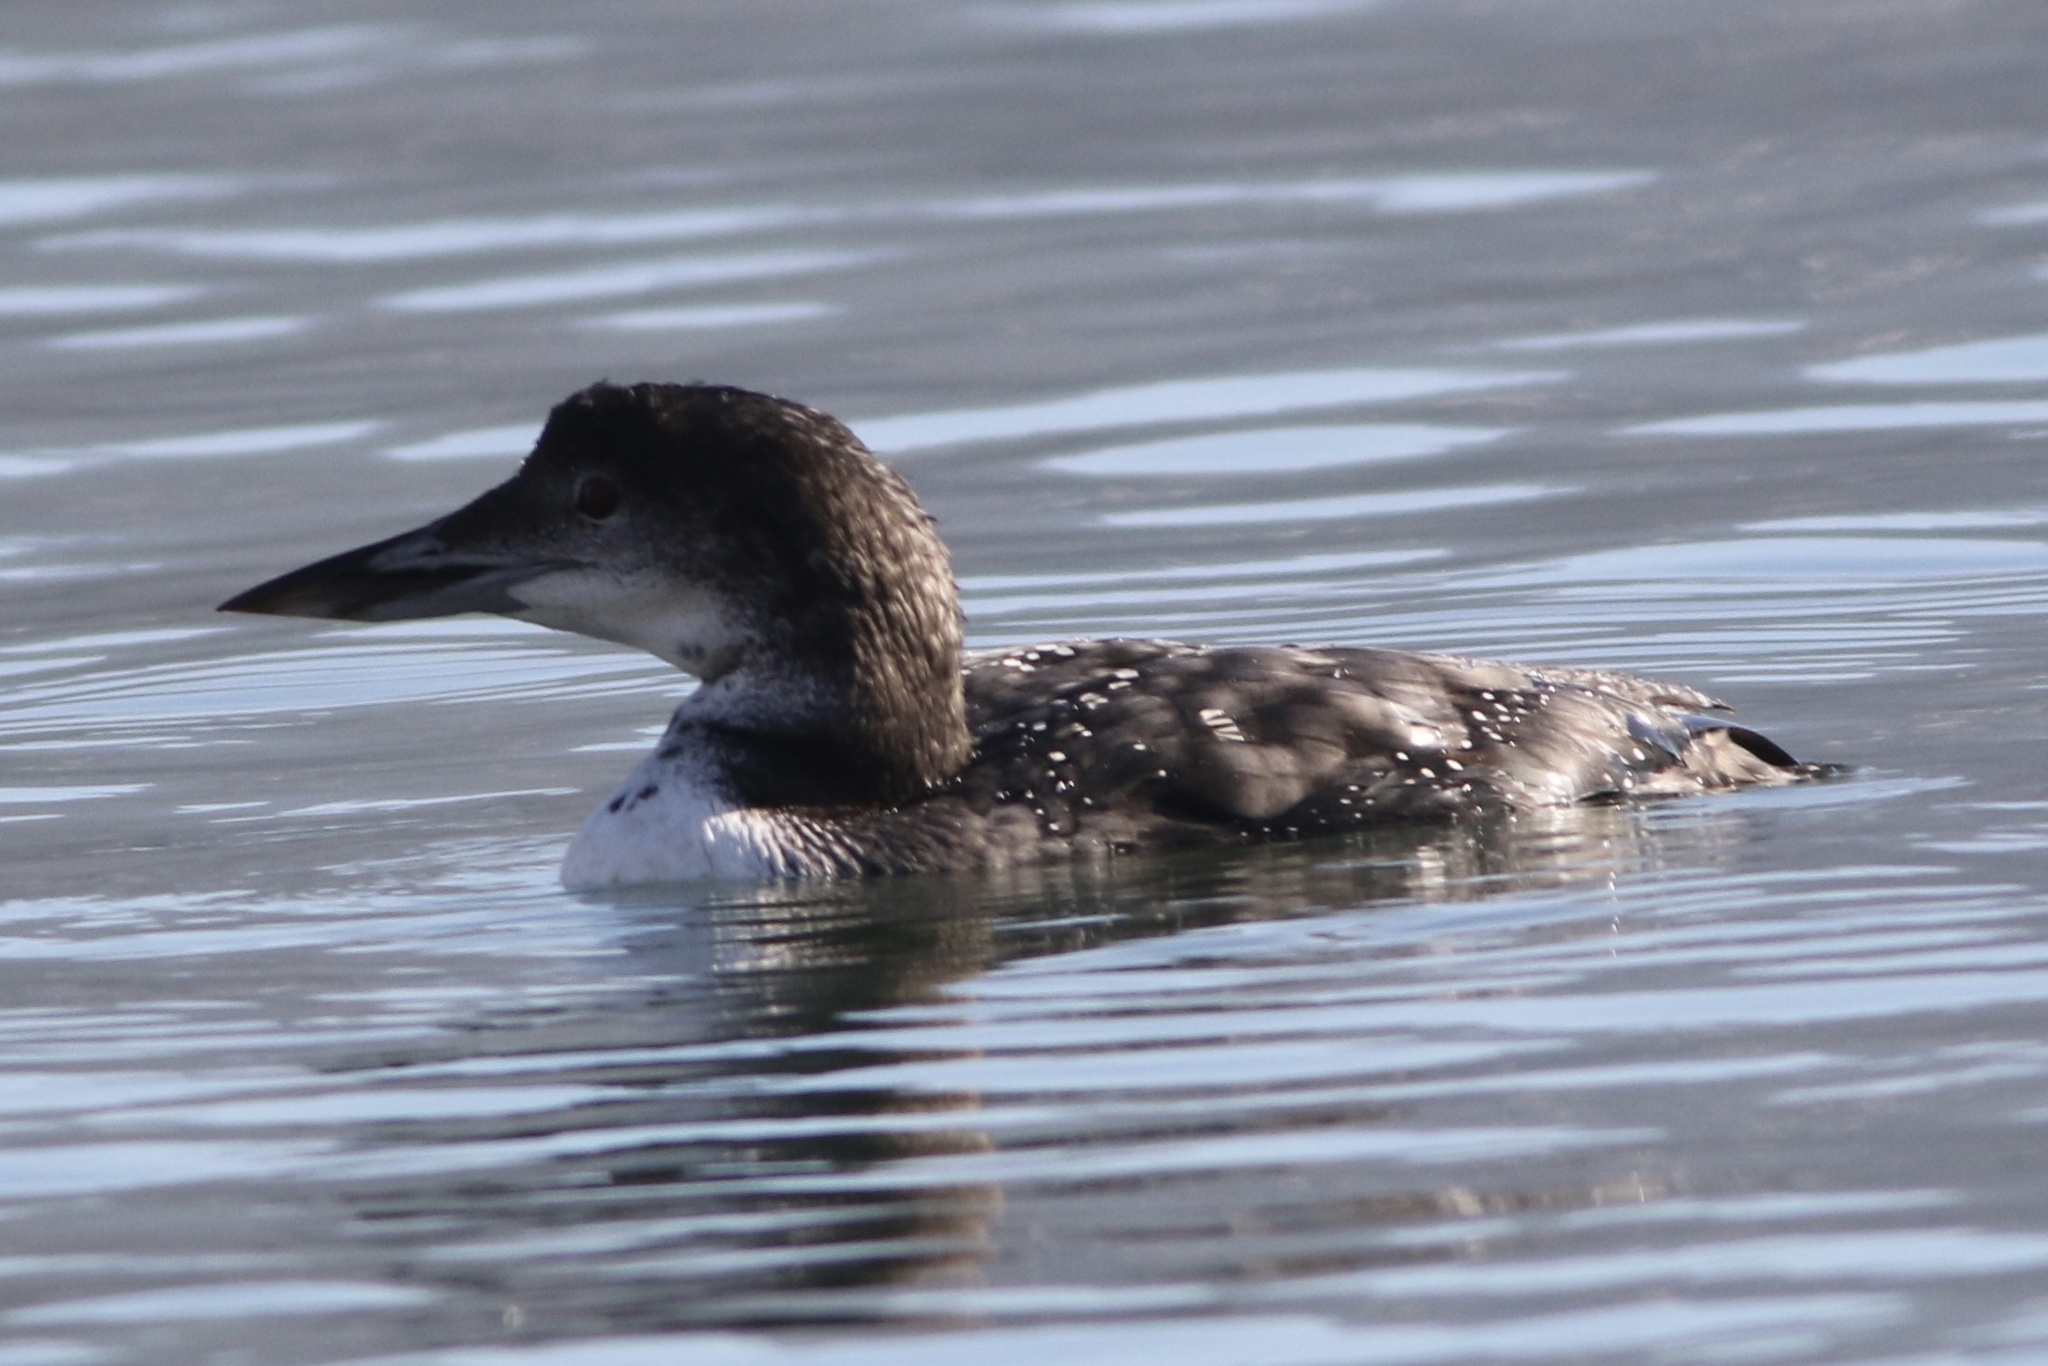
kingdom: Animalia
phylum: Chordata
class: Aves
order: Gaviiformes
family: Gaviidae
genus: Gavia
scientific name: Gavia immer
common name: Common loon
